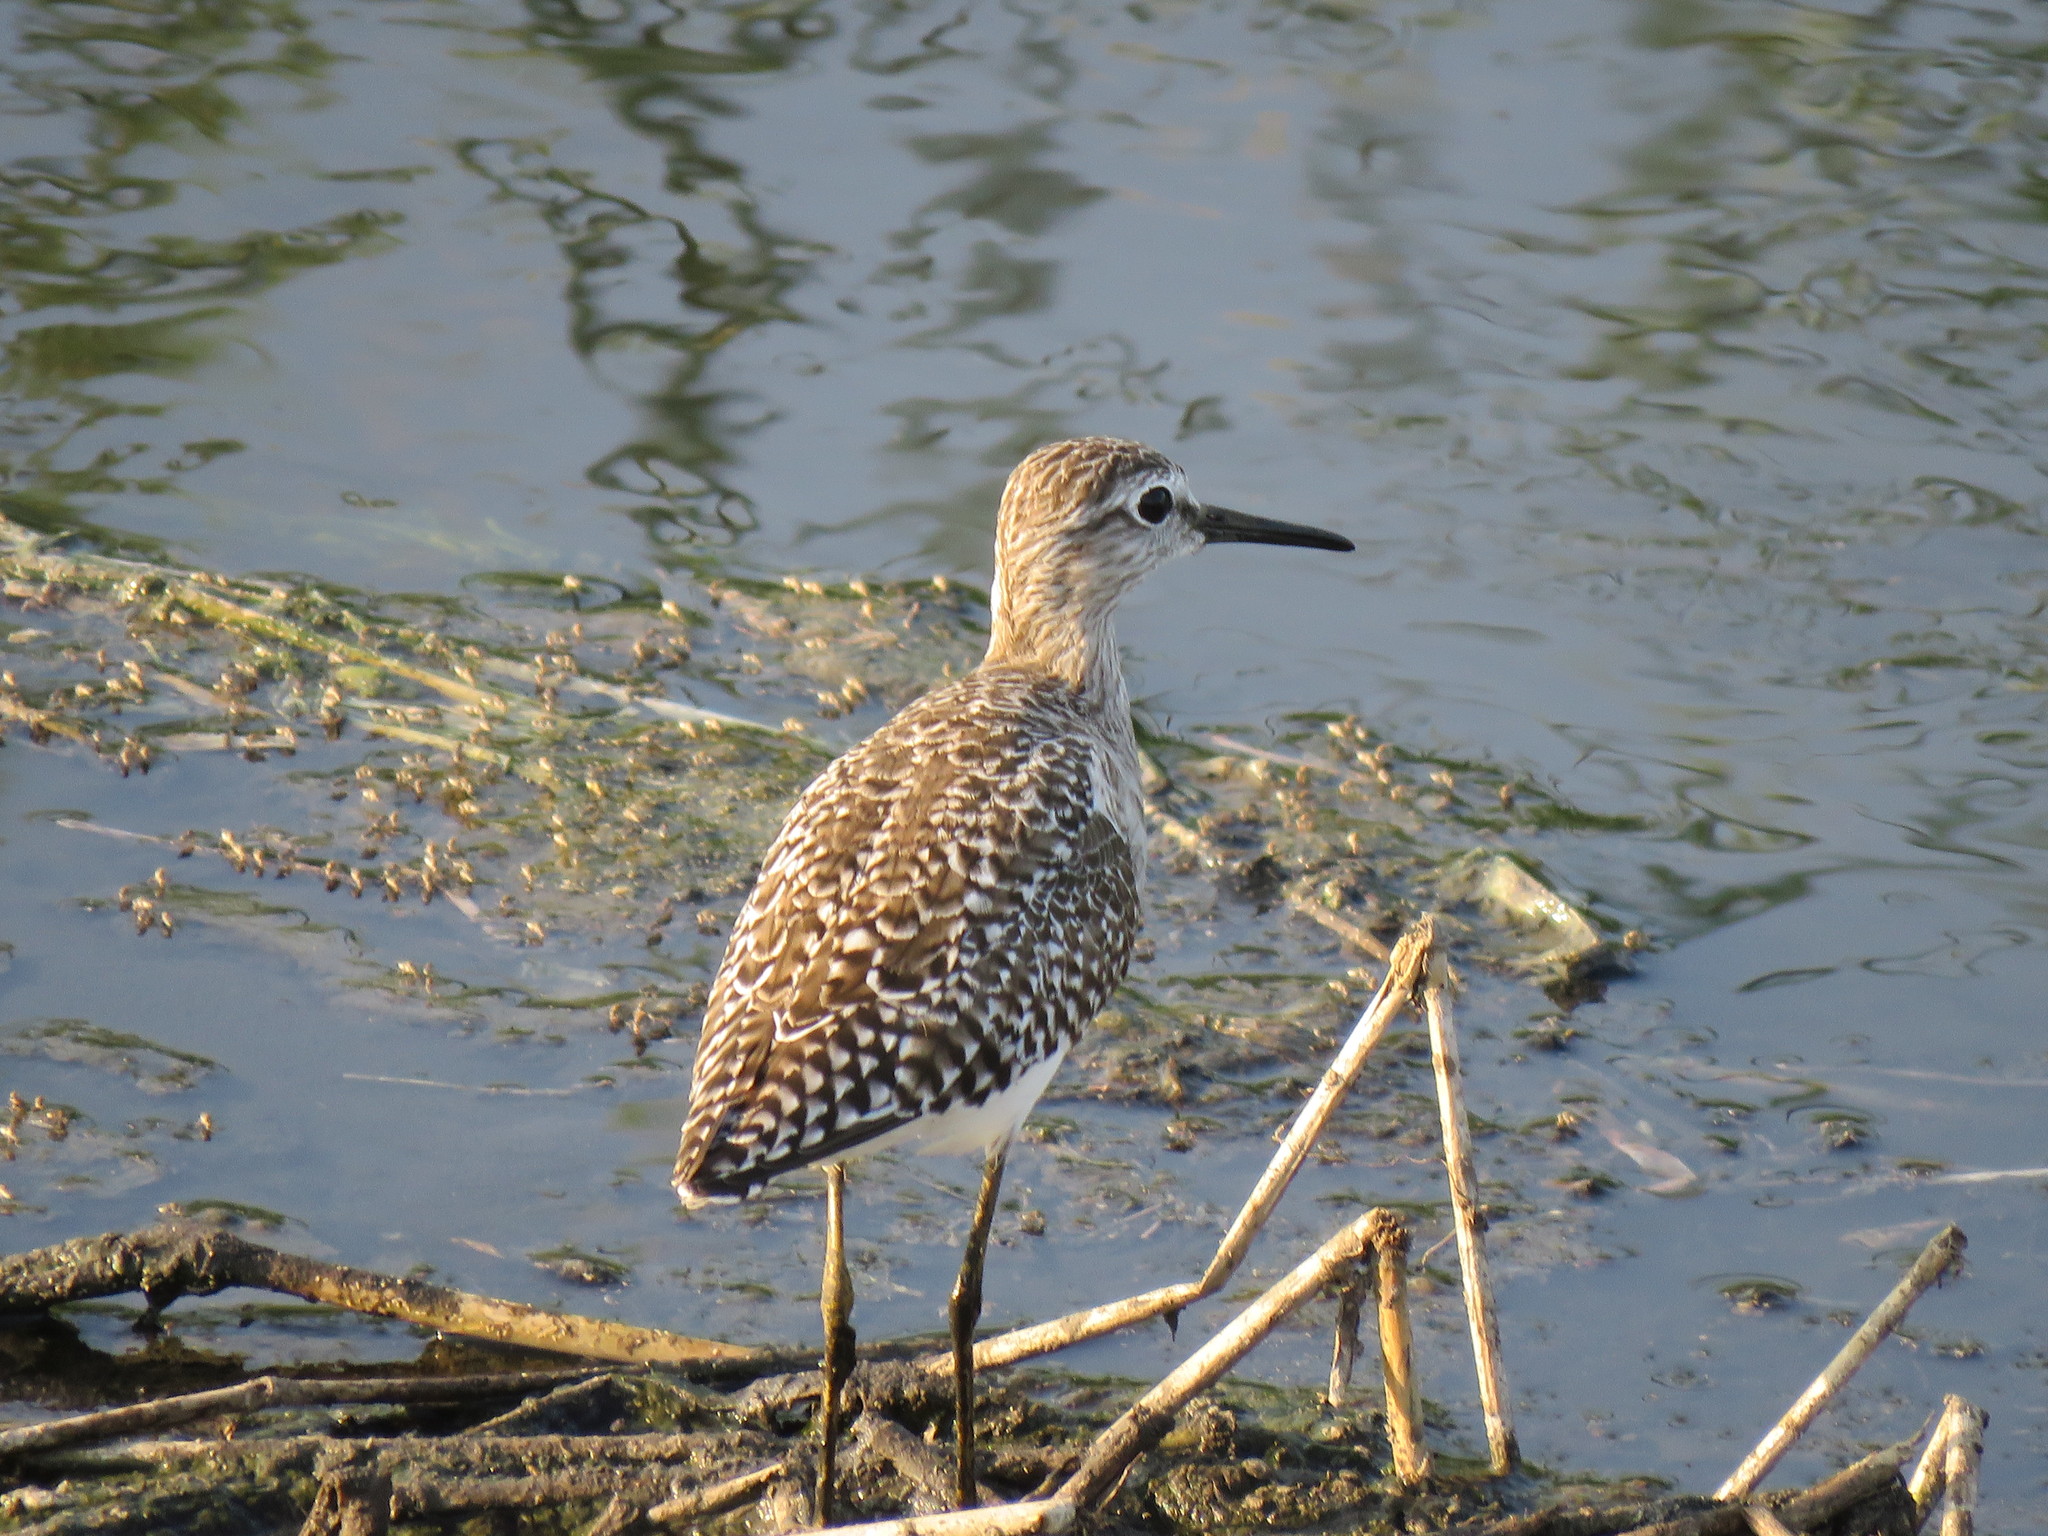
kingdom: Animalia
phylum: Chordata
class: Aves
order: Charadriiformes
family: Scolopacidae
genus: Tringa
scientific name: Tringa glareola
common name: Wood sandpiper
